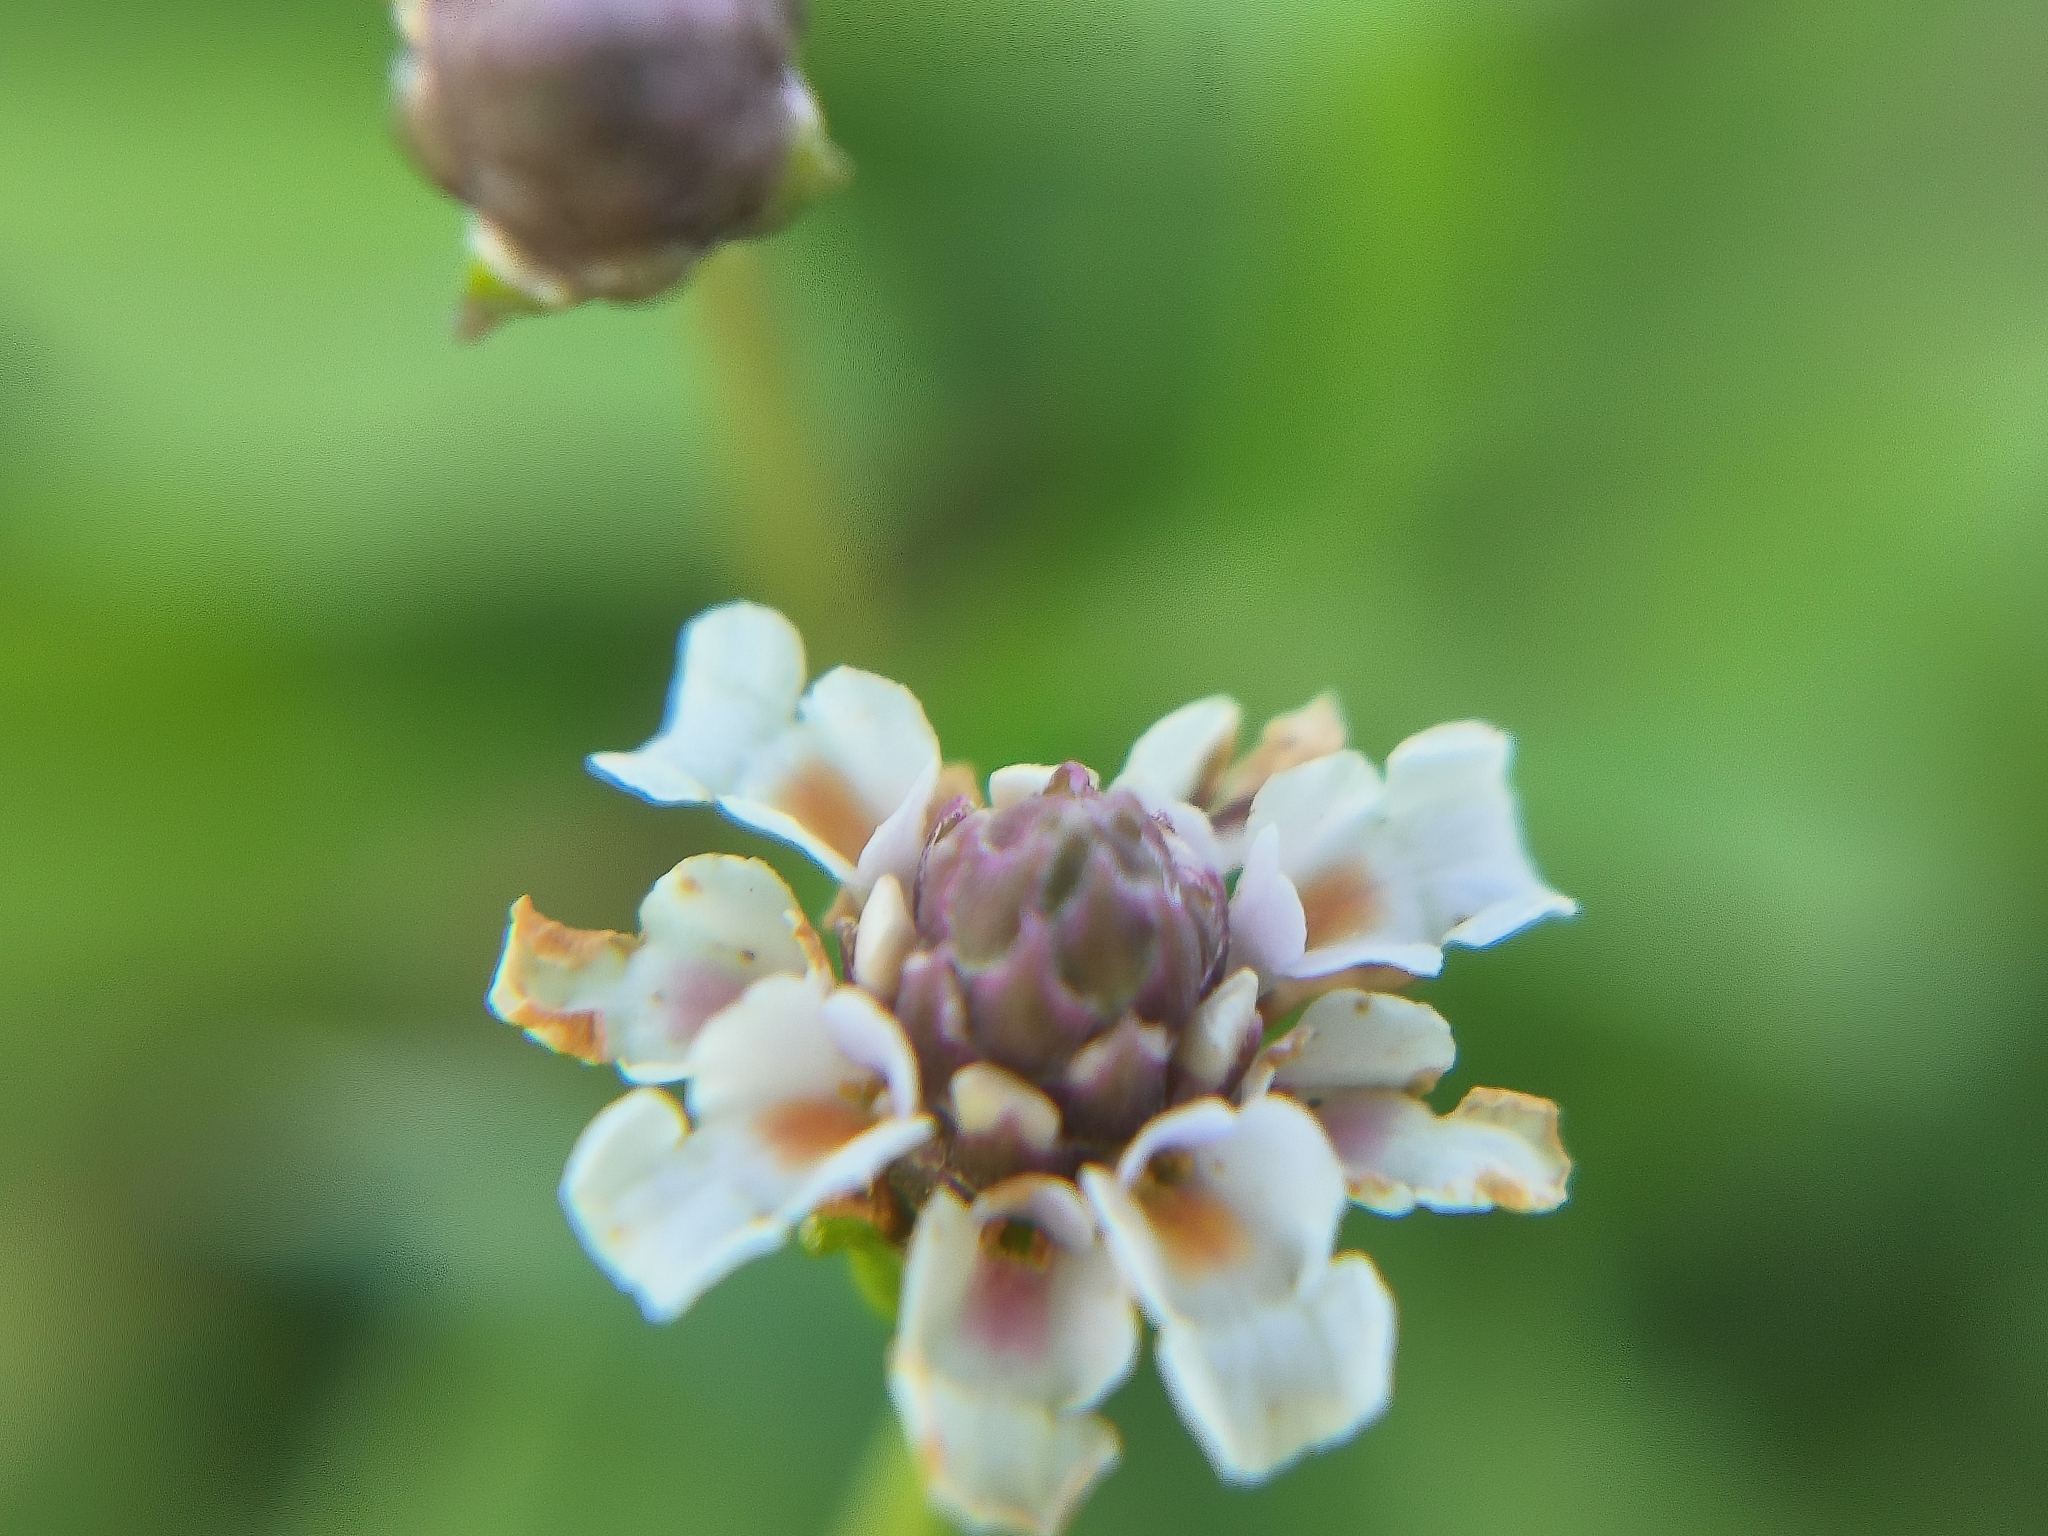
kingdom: Plantae
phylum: Tracheophyta
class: Magnoliopsida
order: Lamiales
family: Verbenaceae
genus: Phyla
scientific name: Phyla nodiflora
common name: Frogfruit
